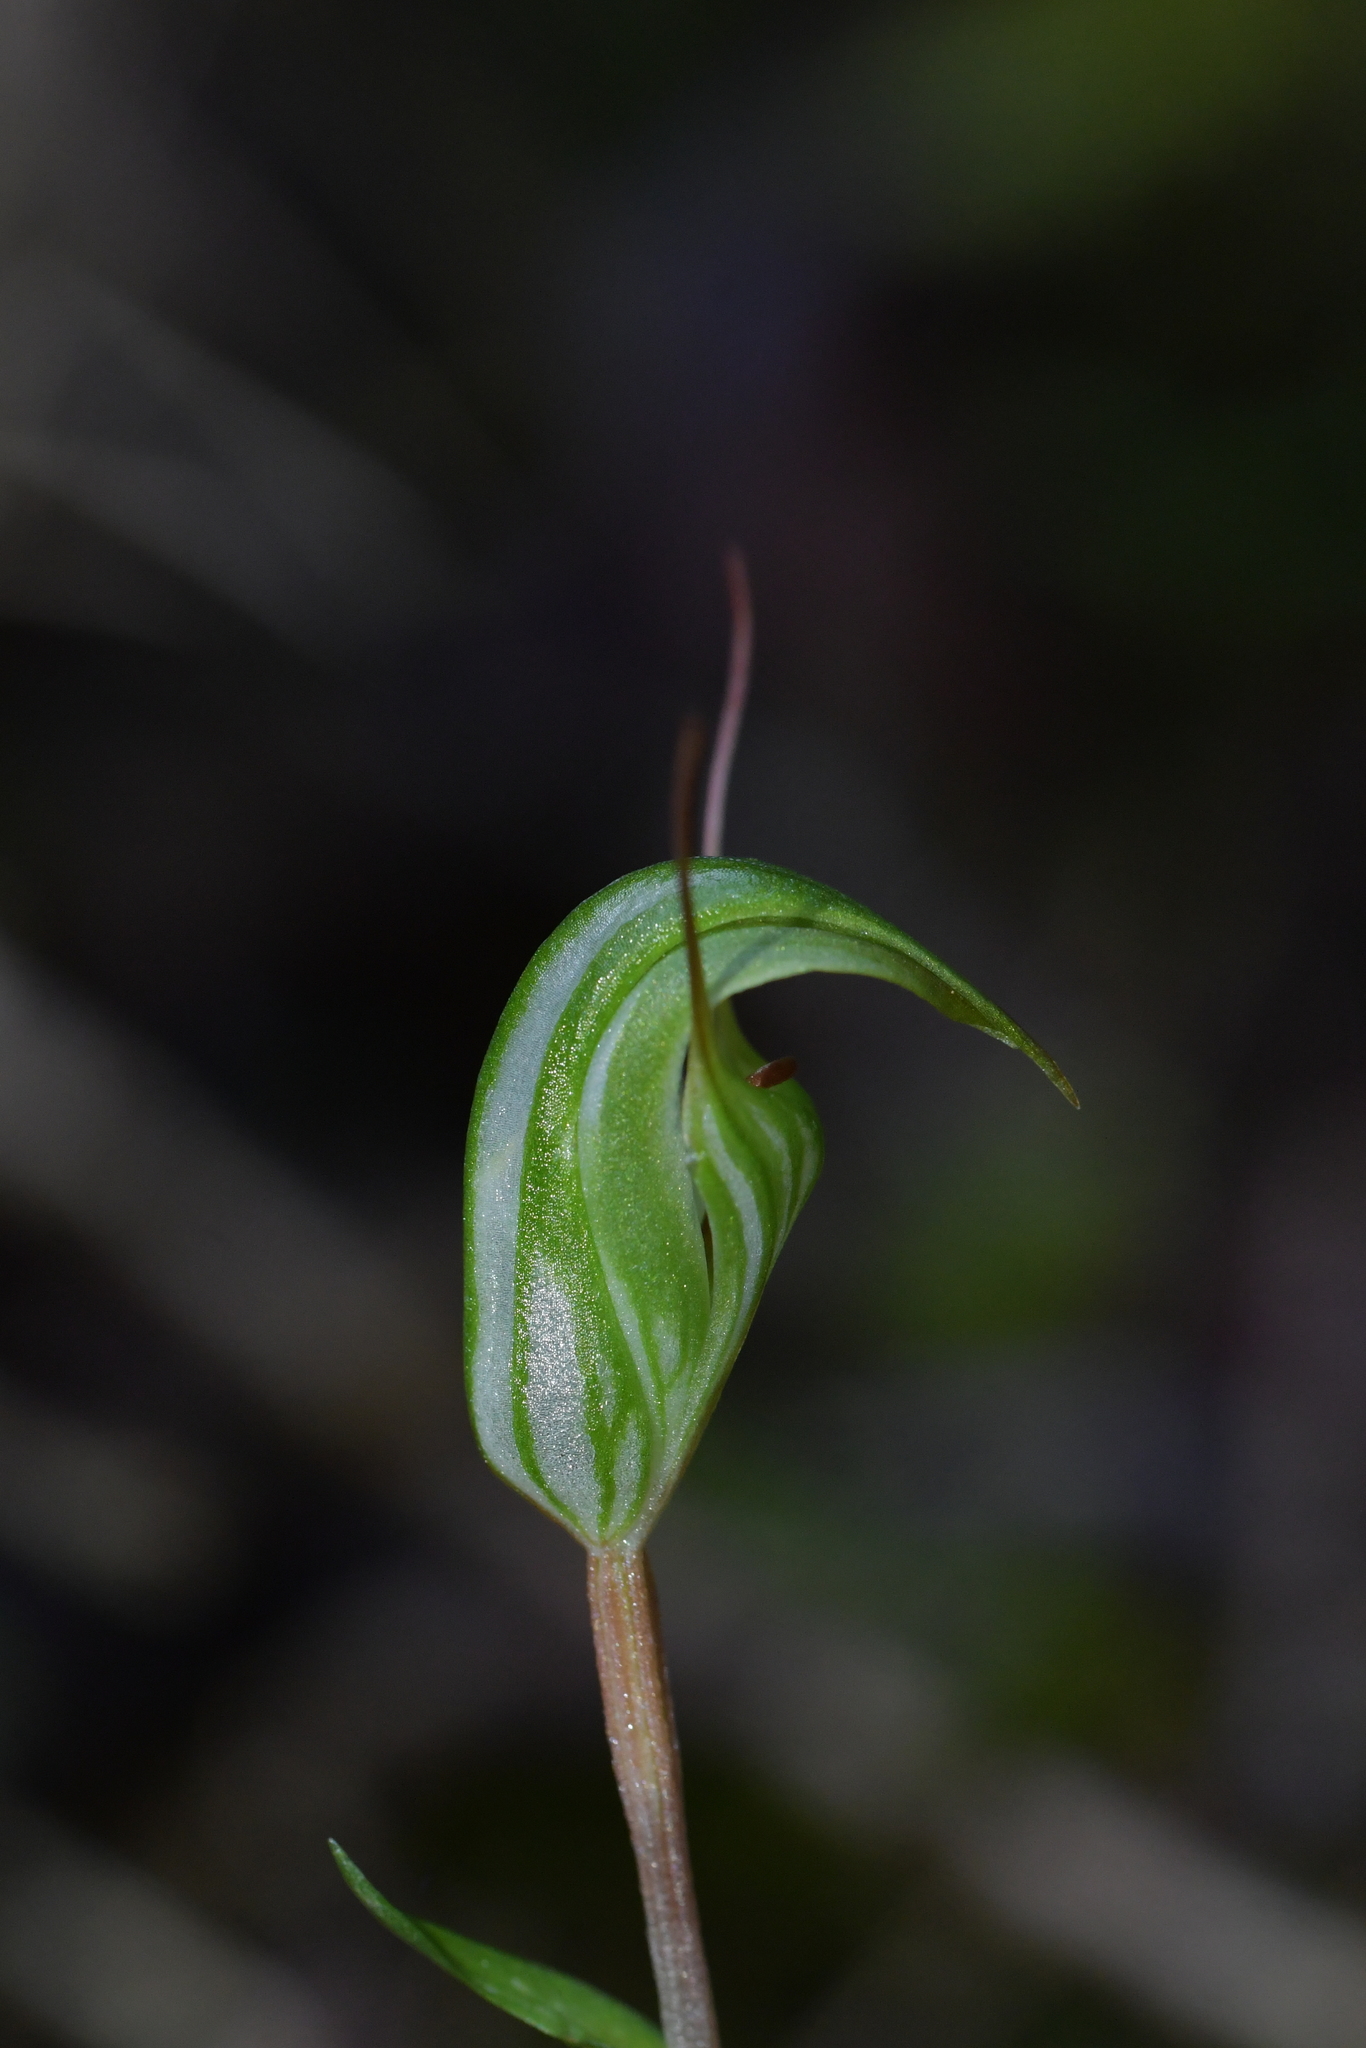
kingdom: Plantae
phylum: Tracheophyta
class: Liliopsida
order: Asparagales
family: Orchidaceae
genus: Pterostylis
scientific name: Pterostylis alobula
